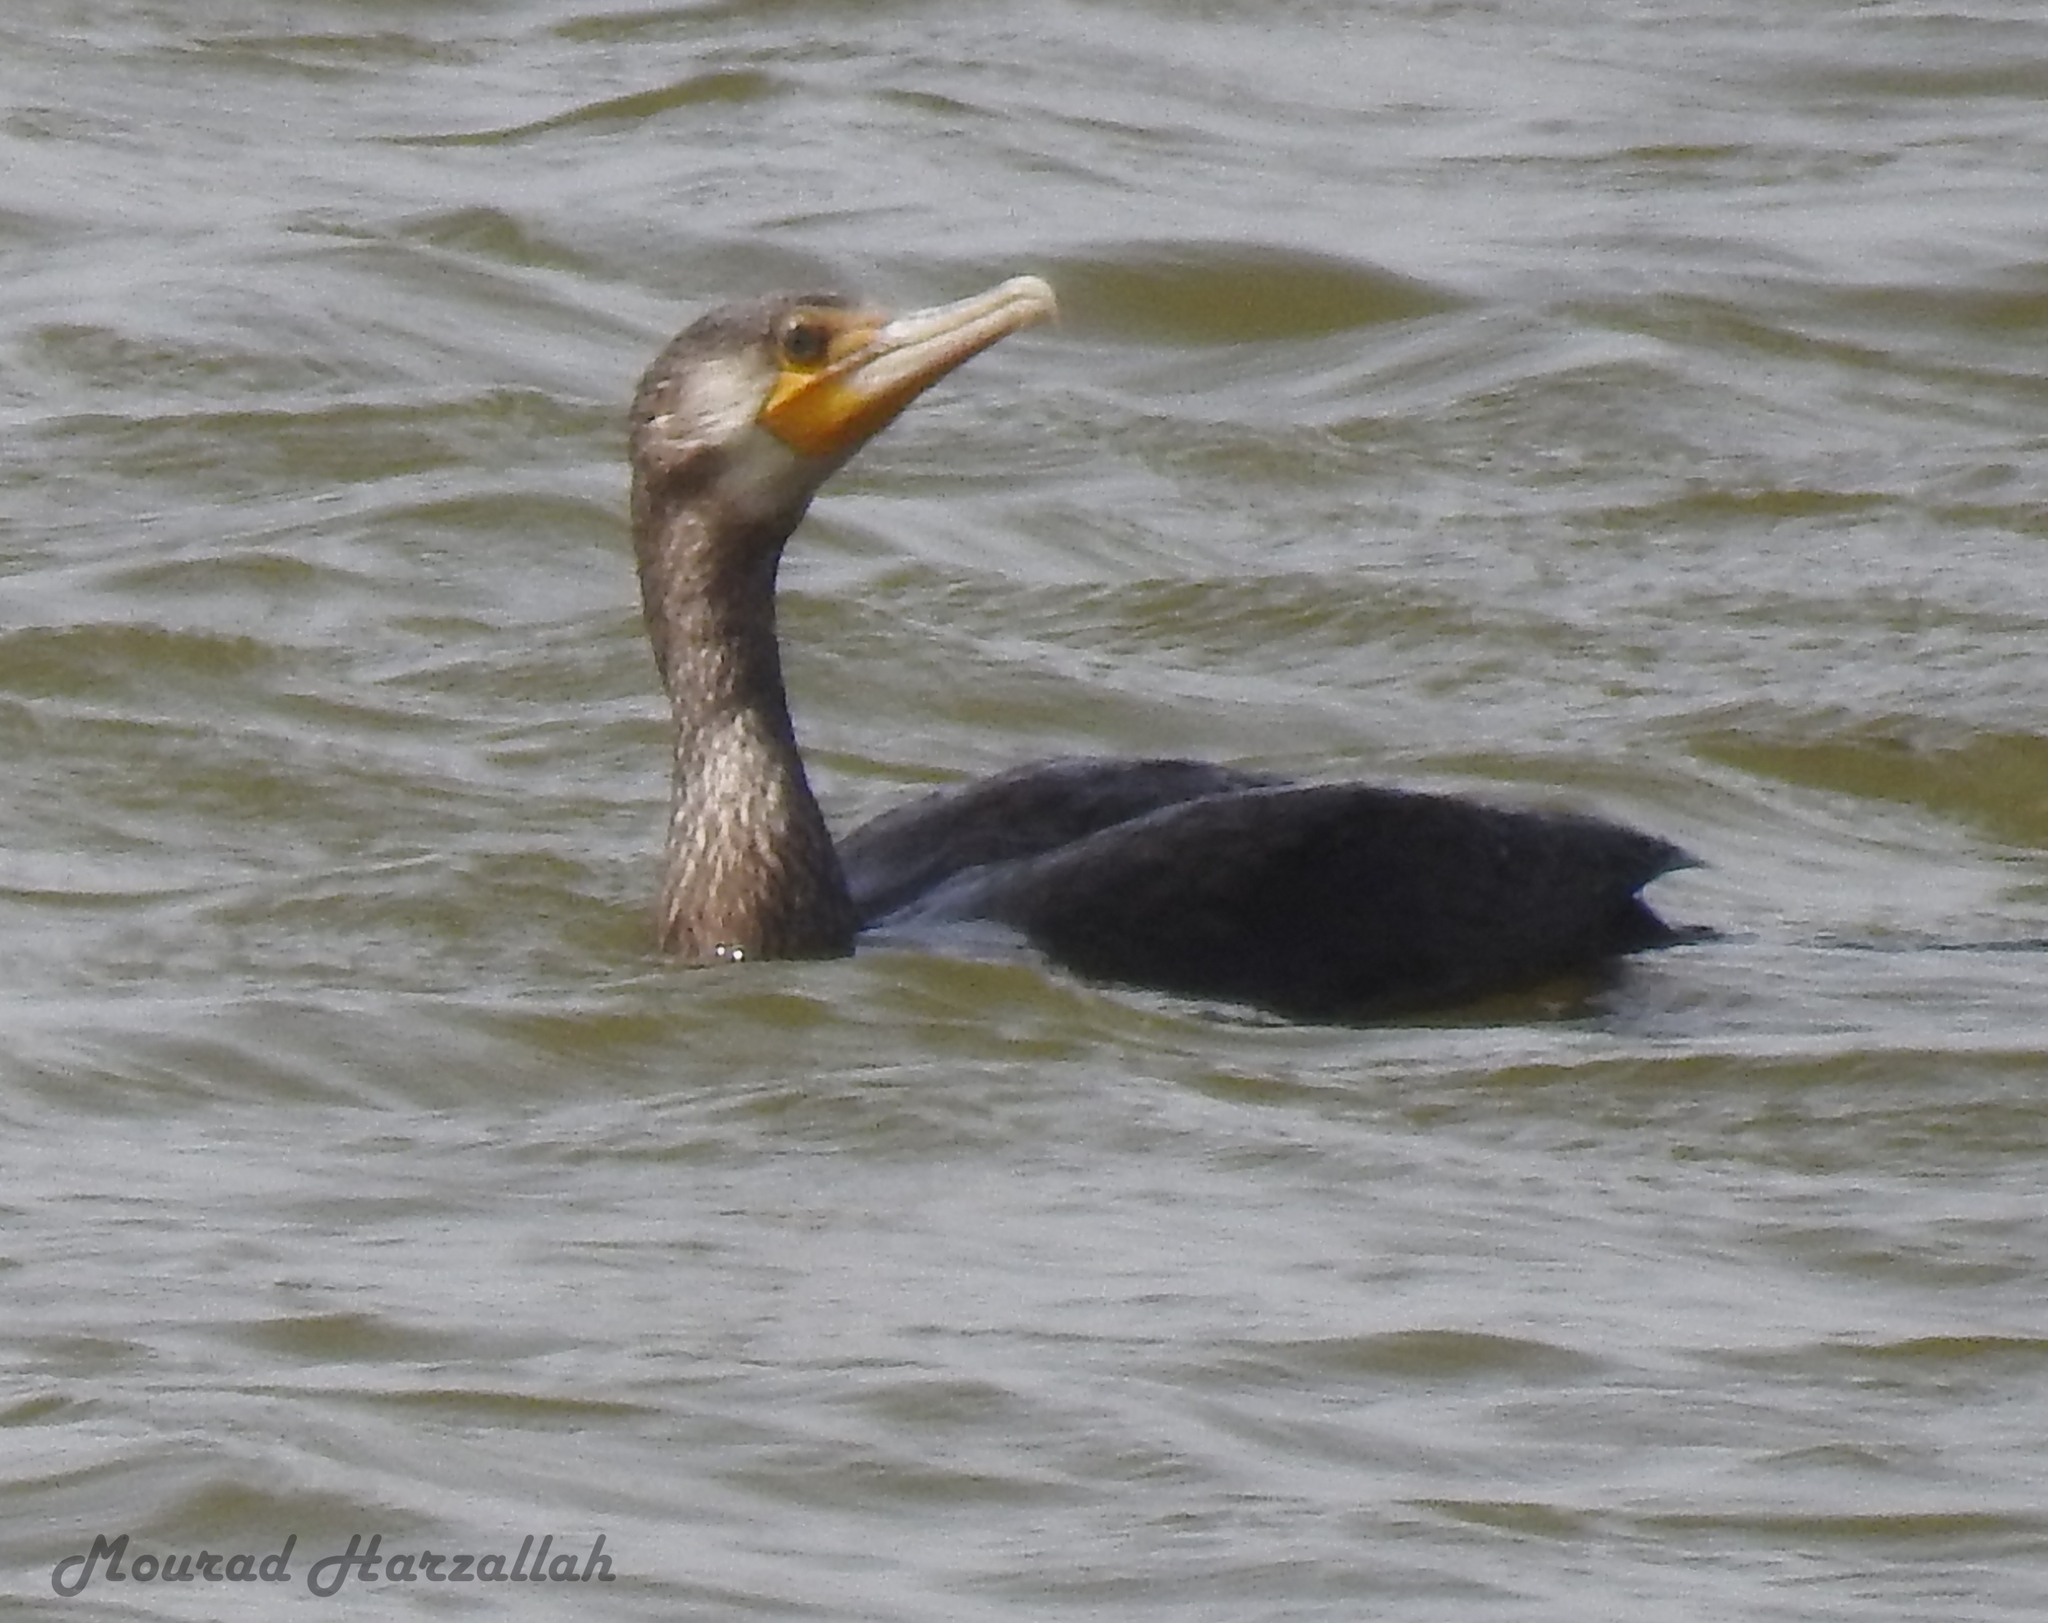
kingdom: Animalia
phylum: Chordata
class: Aves
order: Suliformes
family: Phalacrocoracidae
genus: Phalacrocorax
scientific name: Phalacrocorax carbo
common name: Great cormorant
